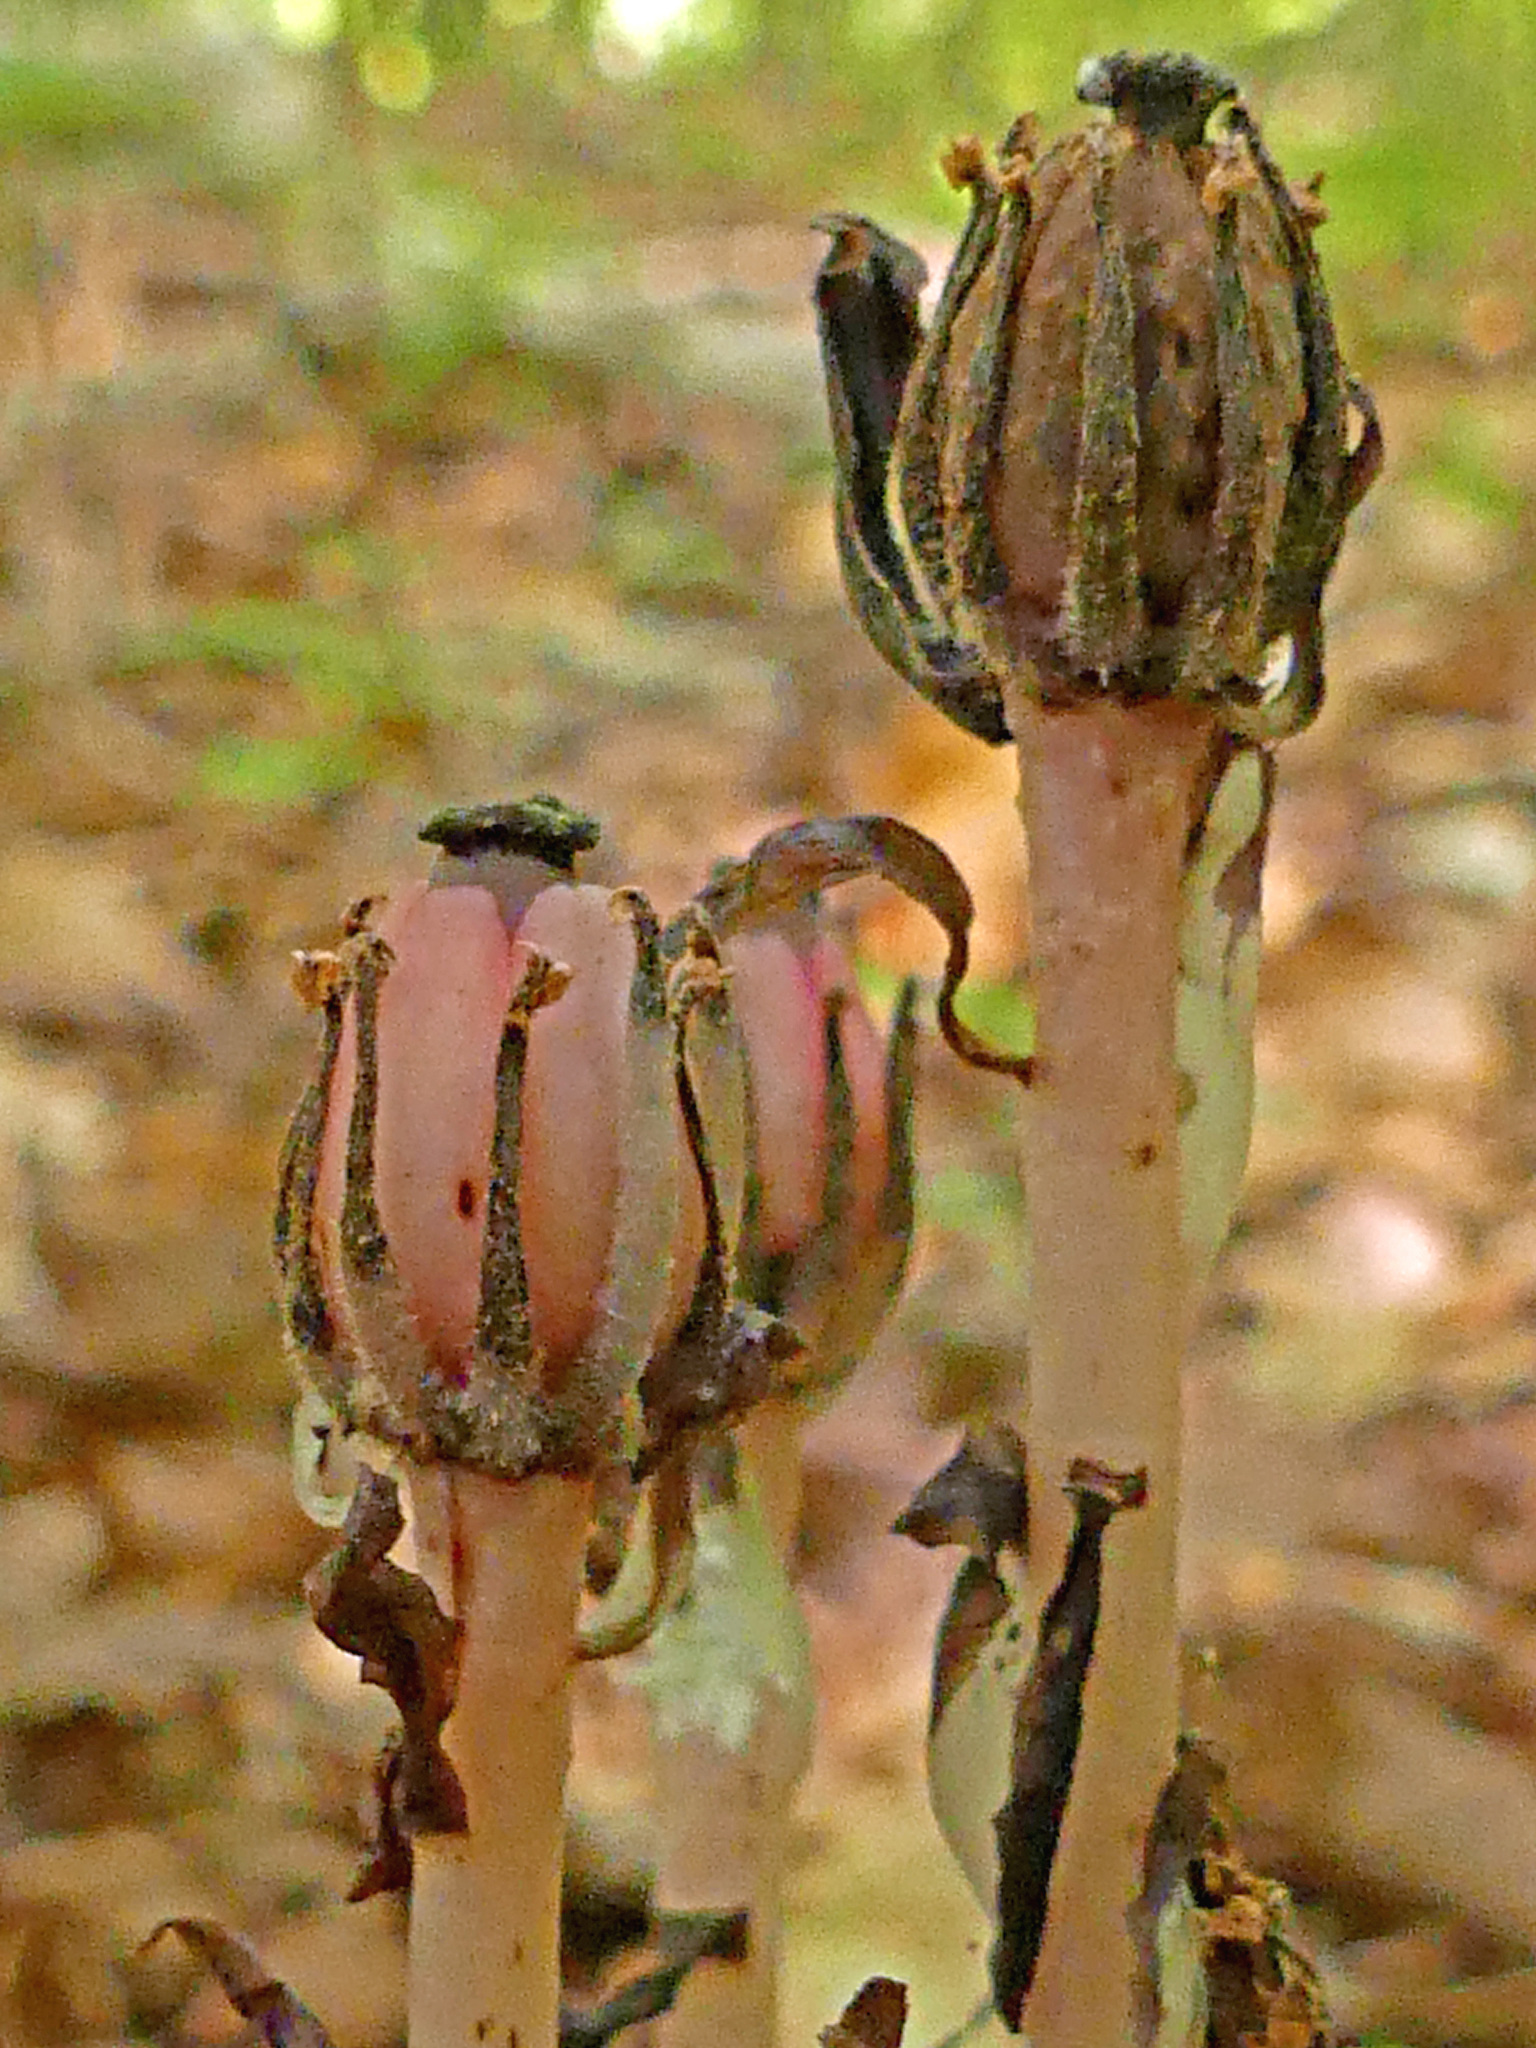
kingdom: Plantae
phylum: Tracheophyta
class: Magnoliopsida
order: Ericales
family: Ericaceae
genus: Monotropa
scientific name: Monotropa uniflora
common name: Convulsion root
